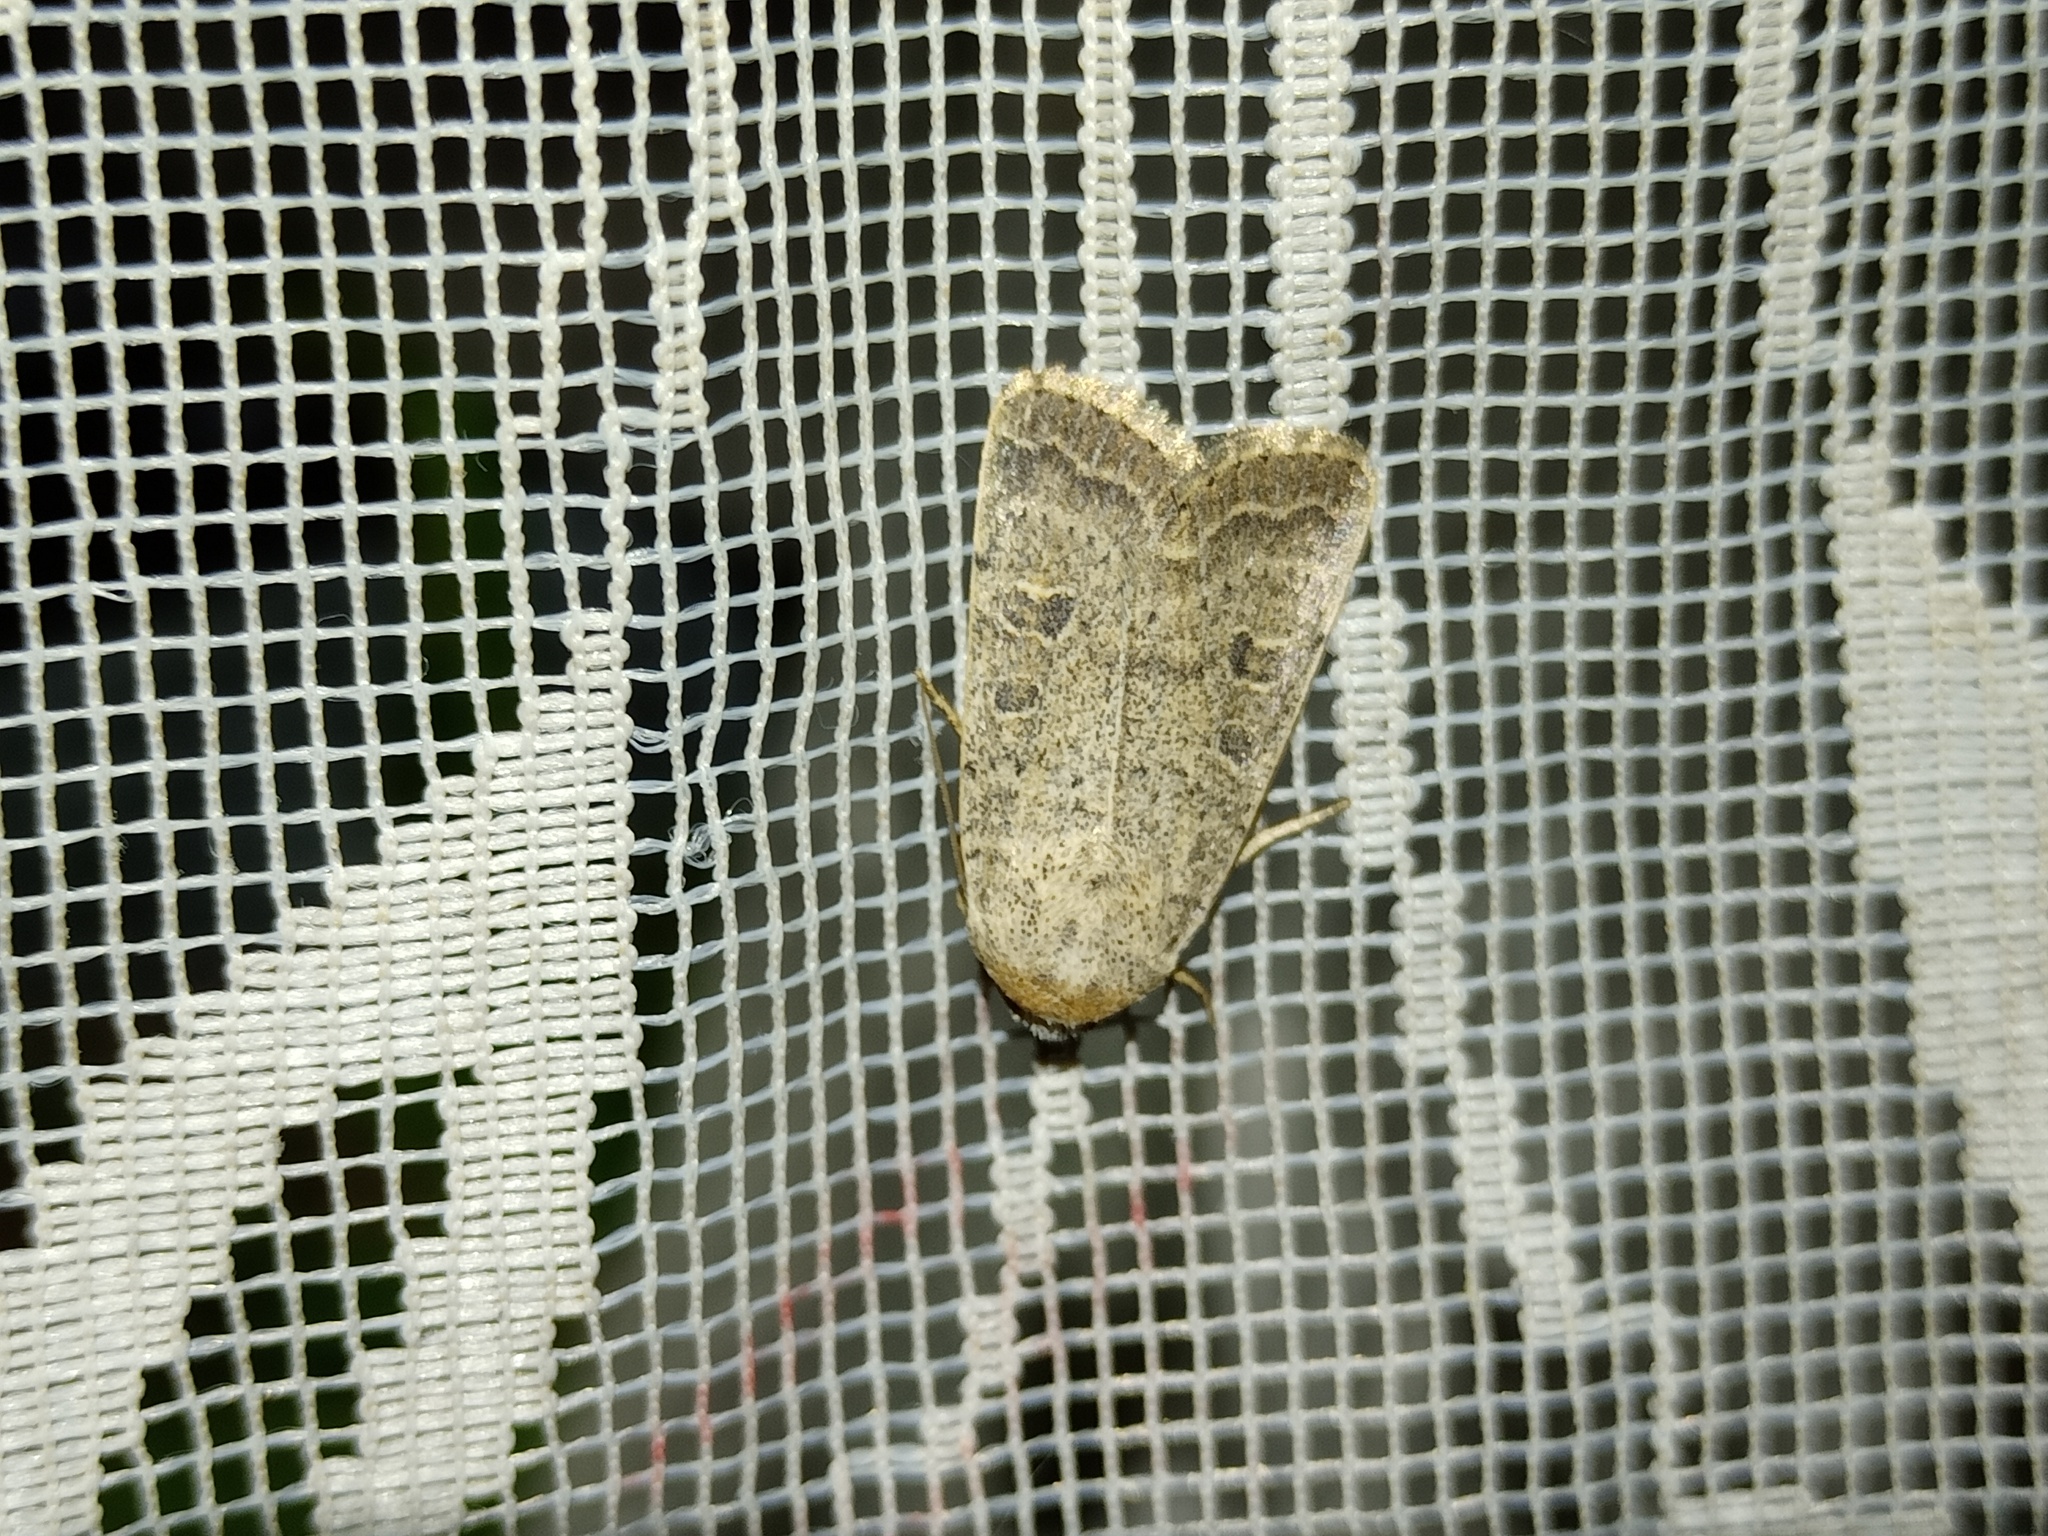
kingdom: Animalia
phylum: Arthropoda
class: Insecta
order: Lepidoptera
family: Noctuidae
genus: Hoplodrina
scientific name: Hoplodrina superstes
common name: Powdered rustic
